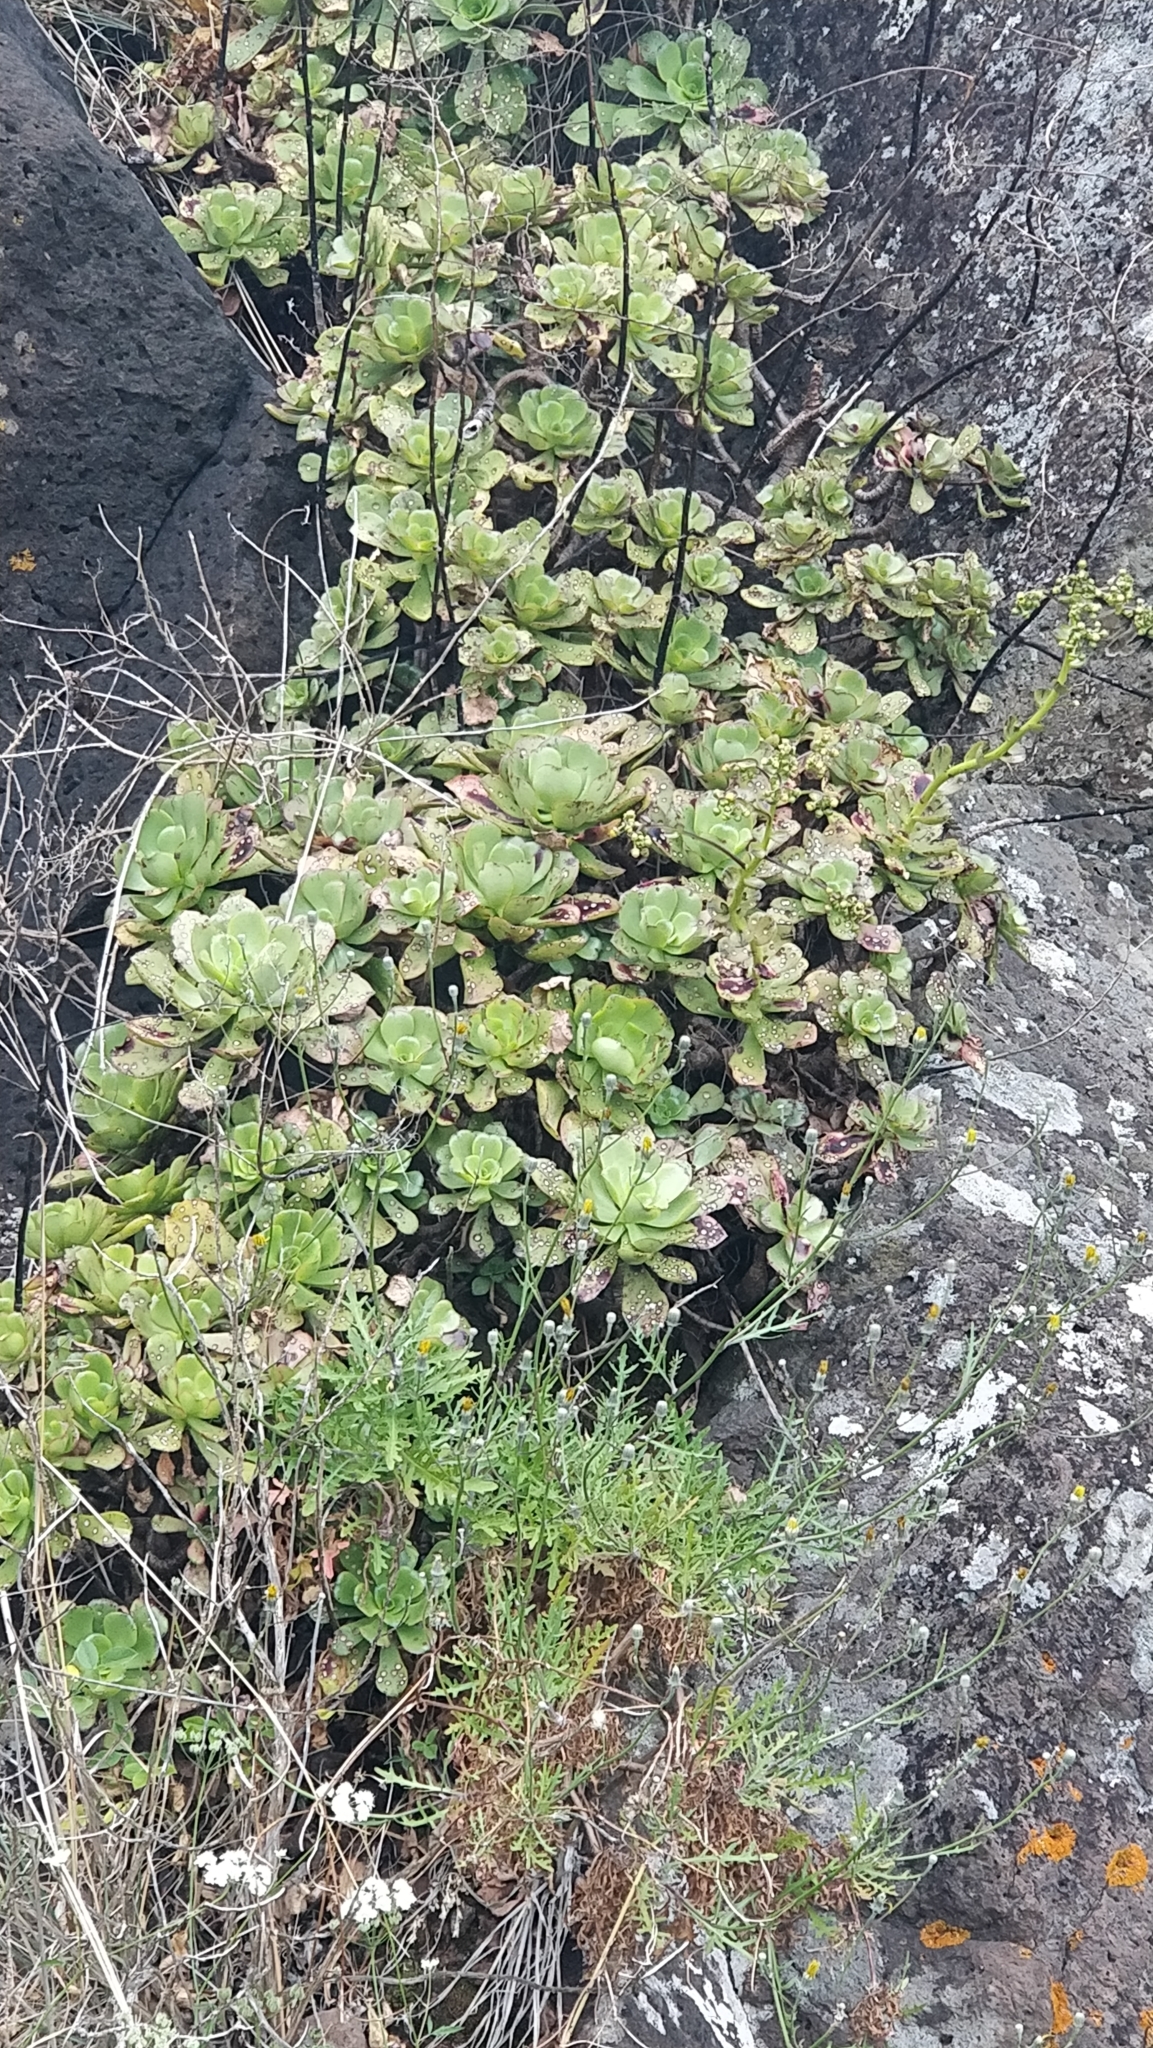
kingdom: Plantae
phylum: Tracheophyta
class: Magnoliopsida
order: Saxifragales
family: Crassulaceae
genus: Aeonium
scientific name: Aeonium glutinosum
